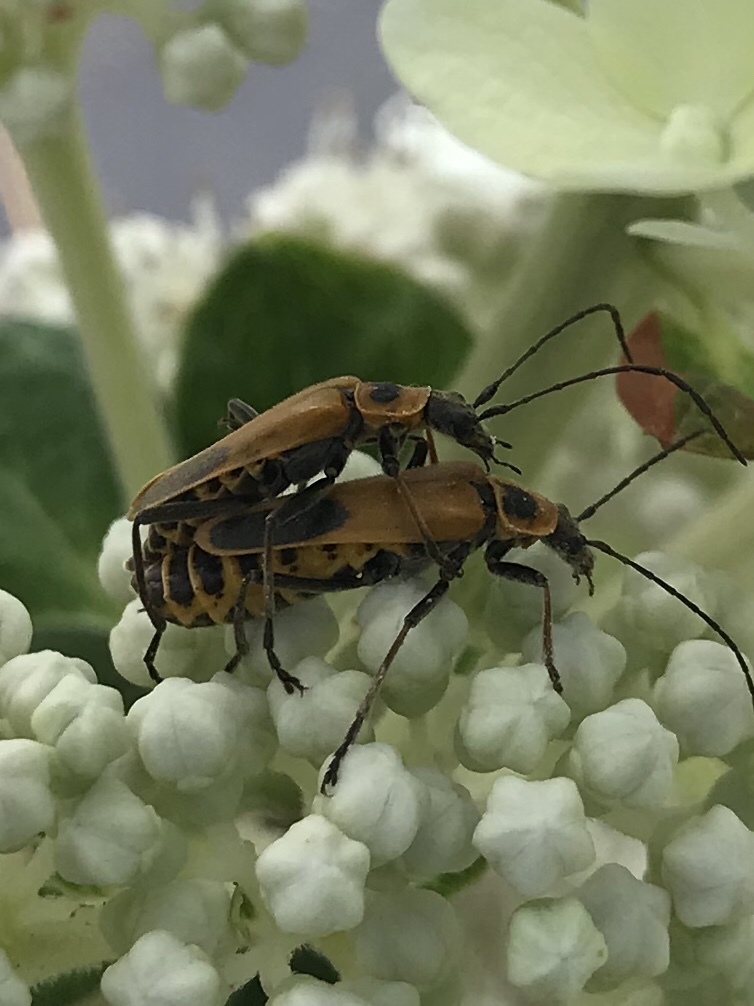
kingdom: Animalia
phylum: Arthropoda
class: Insecta
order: Coleoptera
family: Cantharidae
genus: Chauliognathus
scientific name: Chauliognathus pensylvanicus
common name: Goldenrod soldier beetle
